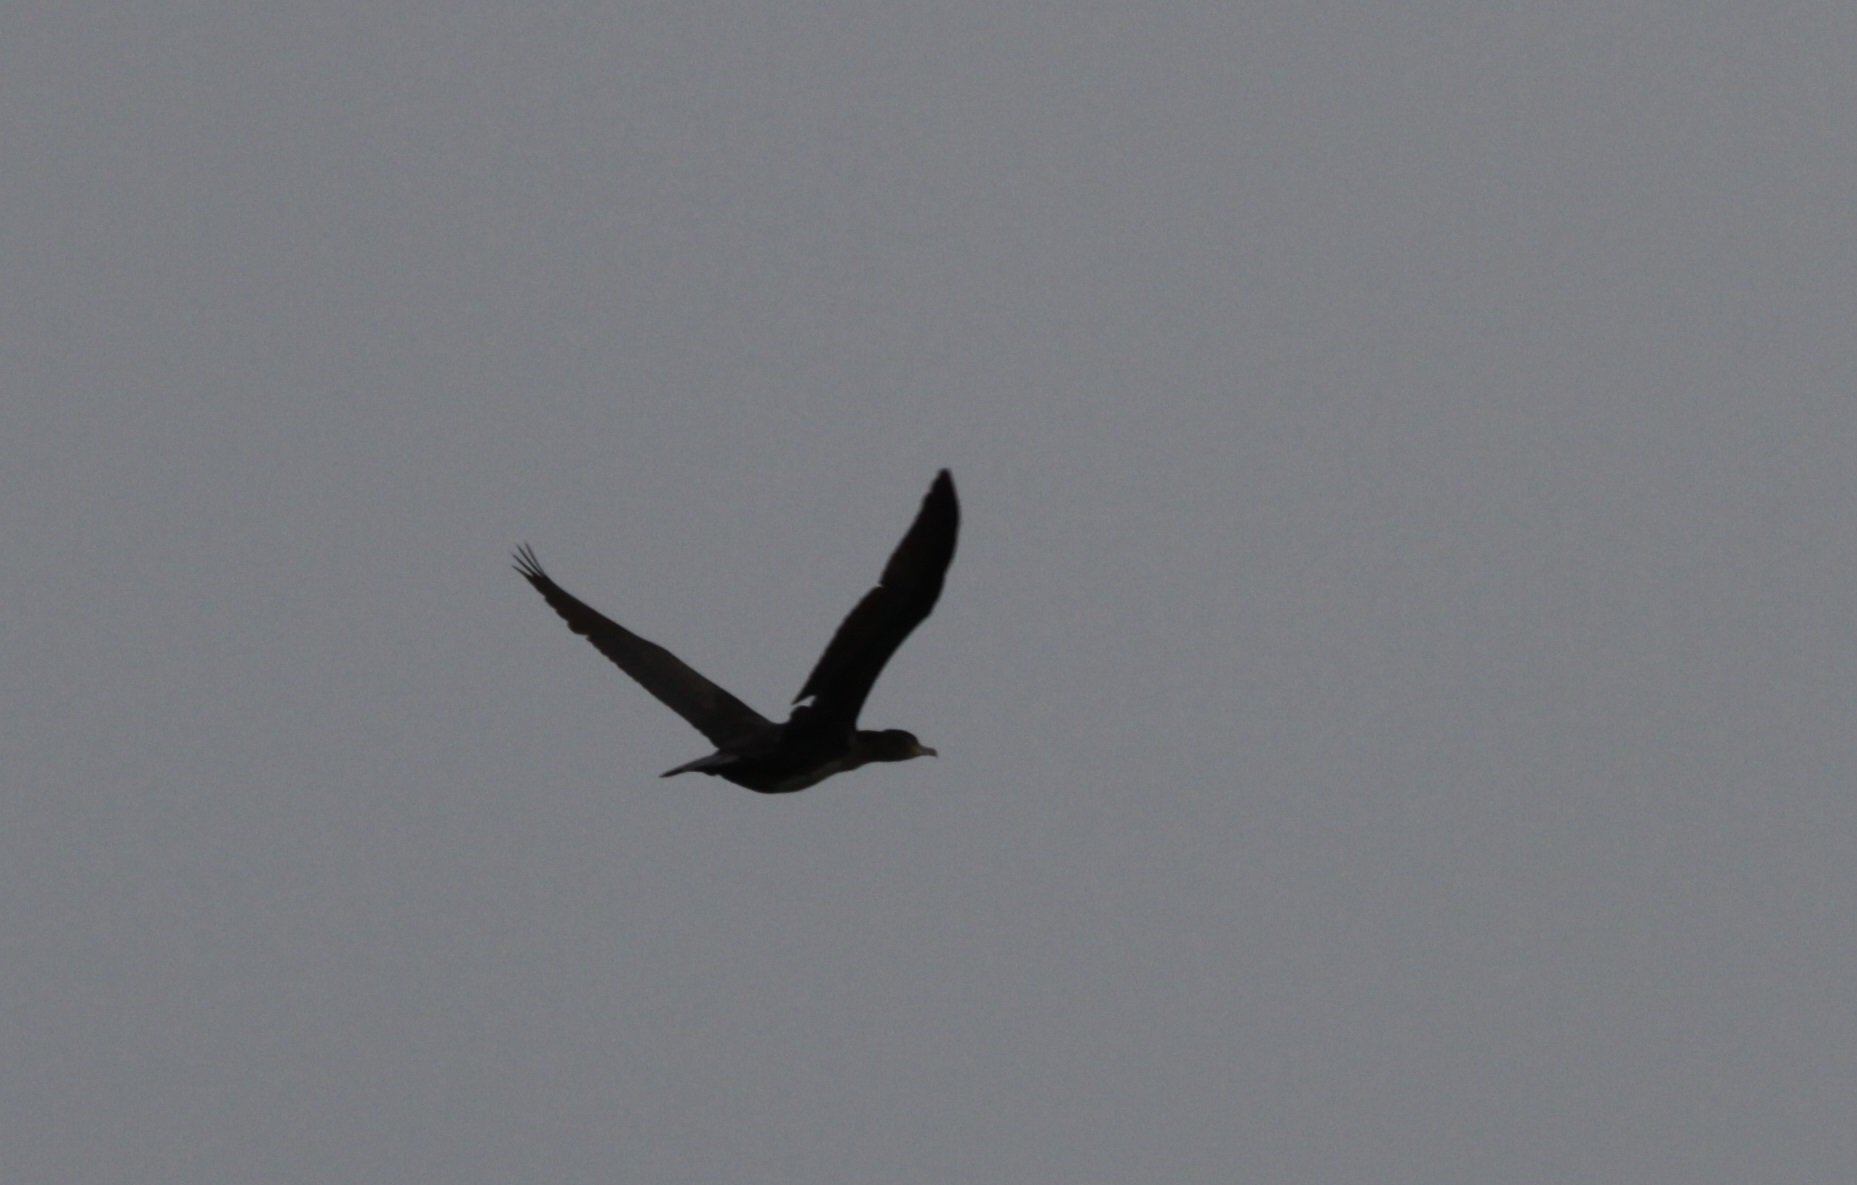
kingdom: Animalia
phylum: Chordata
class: Aves
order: Suliformes
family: Phalacrocoracidae
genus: Phalacrocorax
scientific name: Phalacrocorax carbo
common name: Great cormorant
